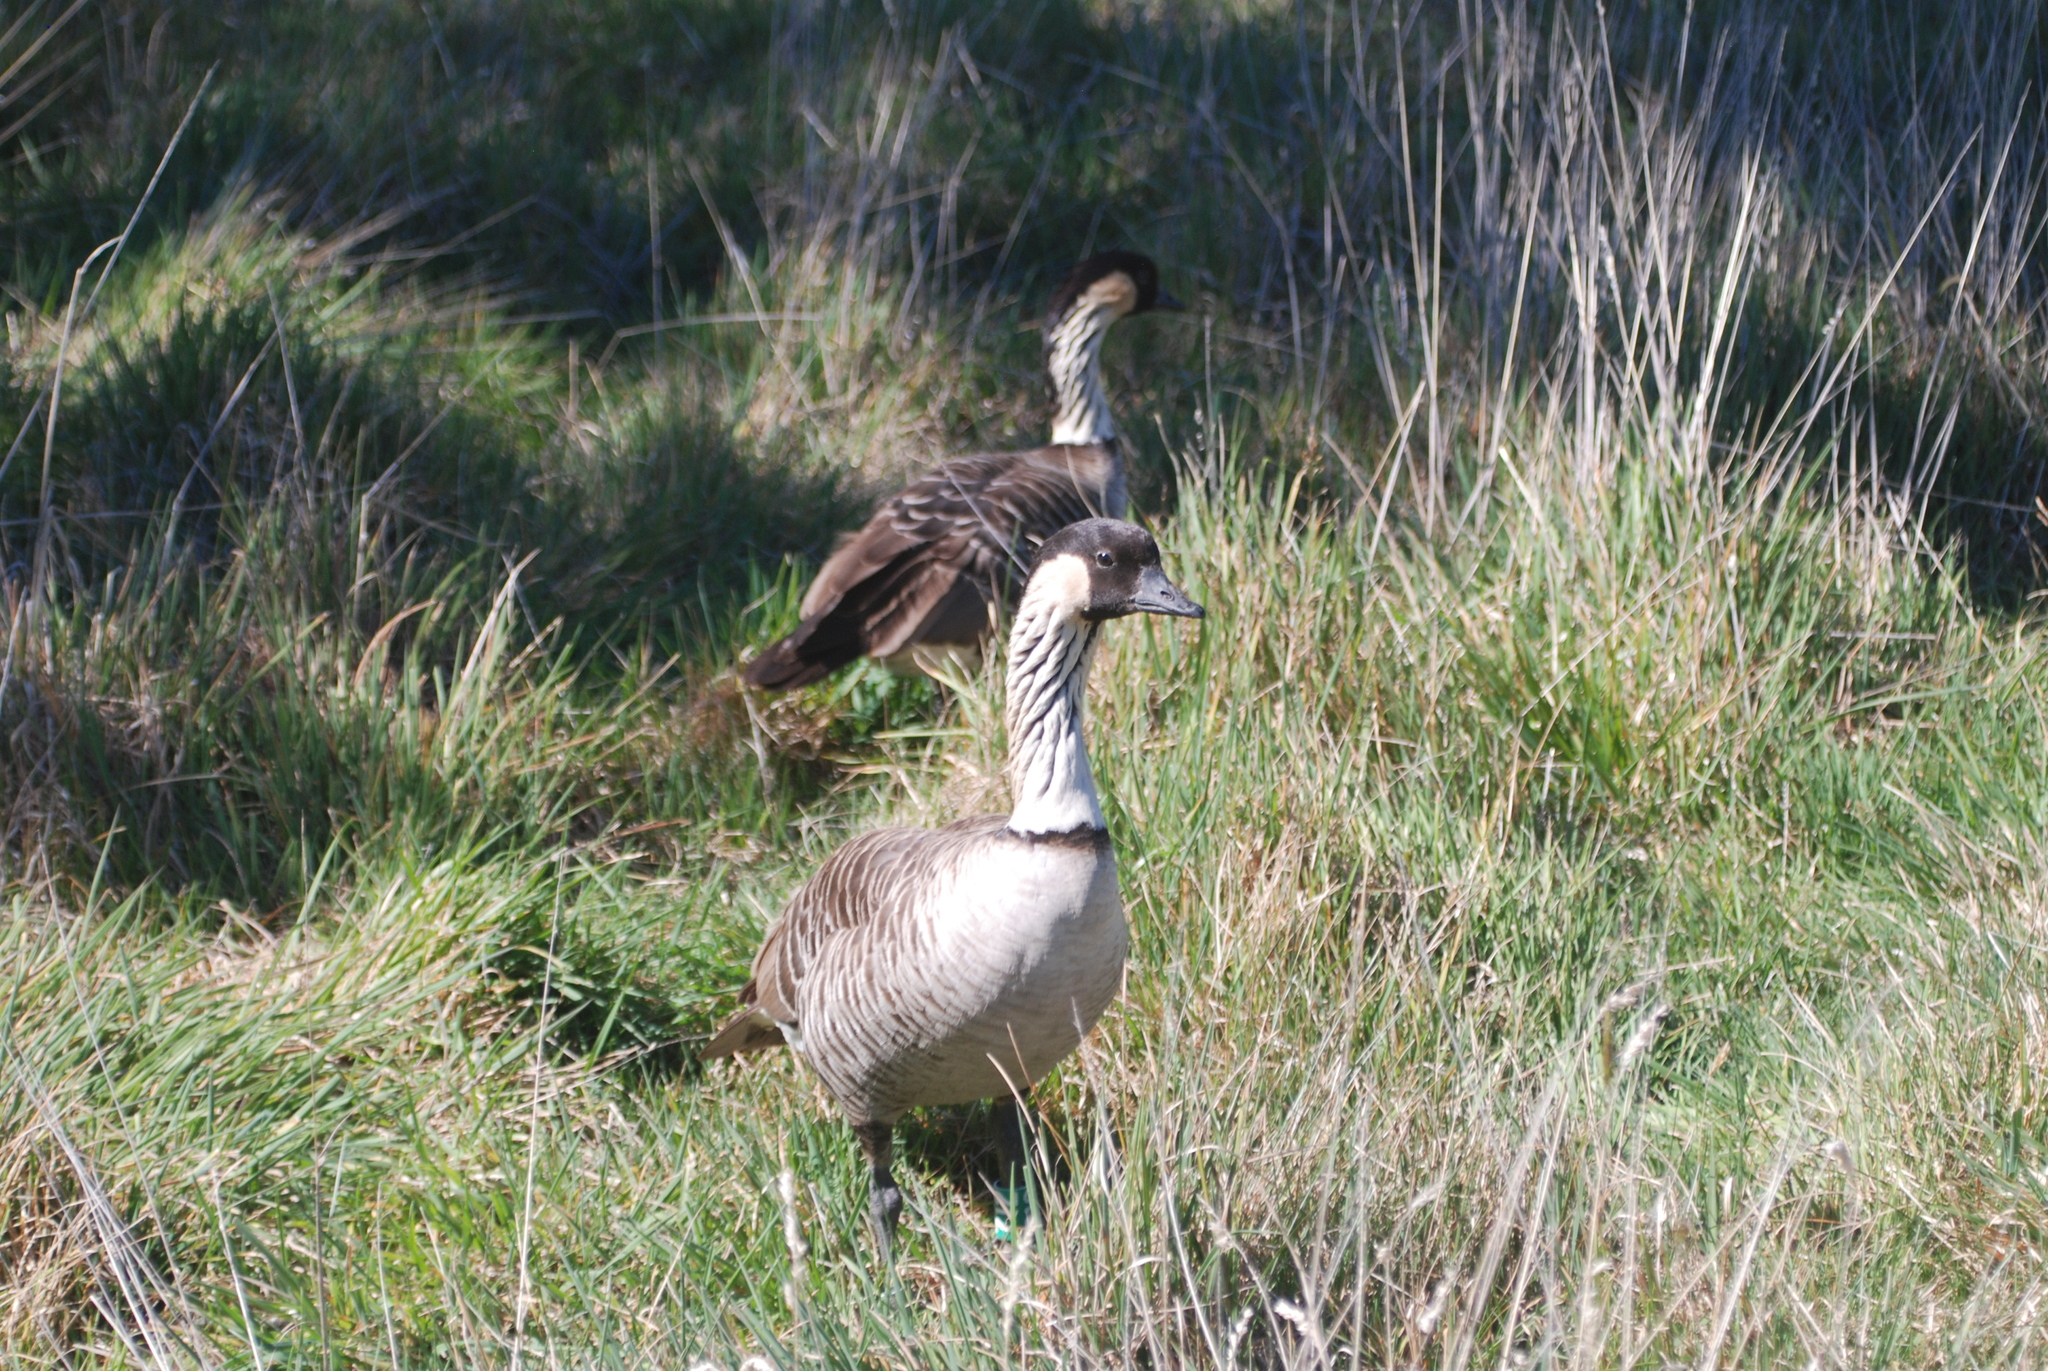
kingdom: Animalia
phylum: Chordata
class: Aves
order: Anseriformes
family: Anatidae
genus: Branta
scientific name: Branta sandvicensis
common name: Nene
